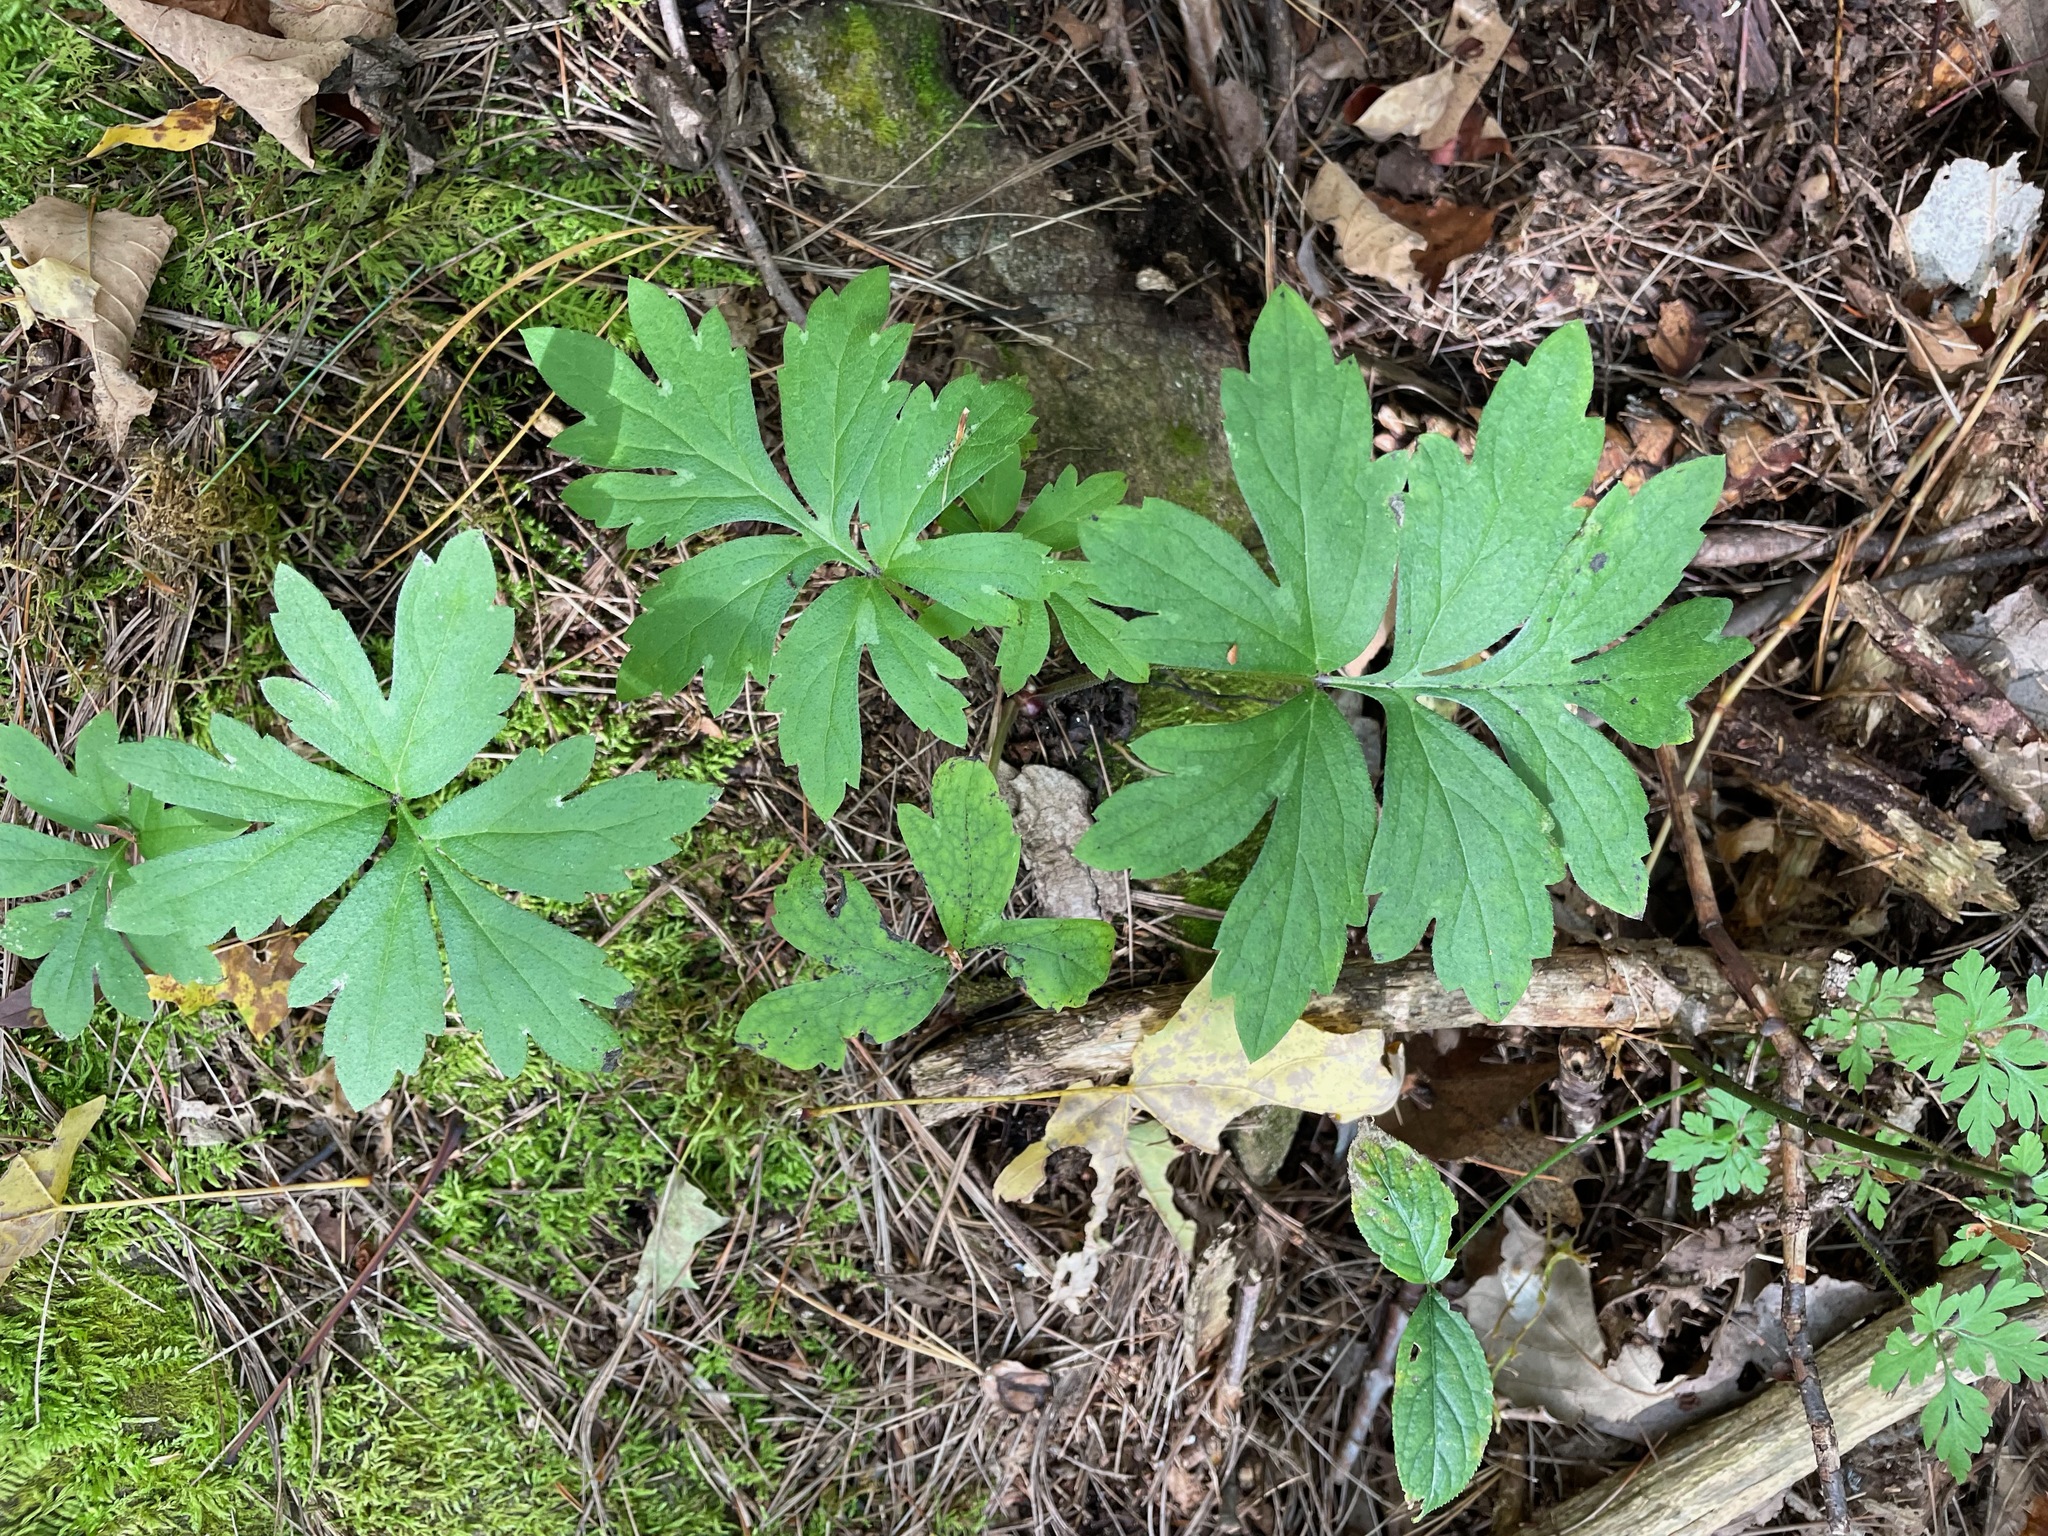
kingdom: Plantae
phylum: Tracheophyta
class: Magnoliopsida
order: Boraginales
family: Hydrophyllaceae
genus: Hydrophyllum
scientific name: Hydrophyllum virginianum
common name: Virginia waterleaf
